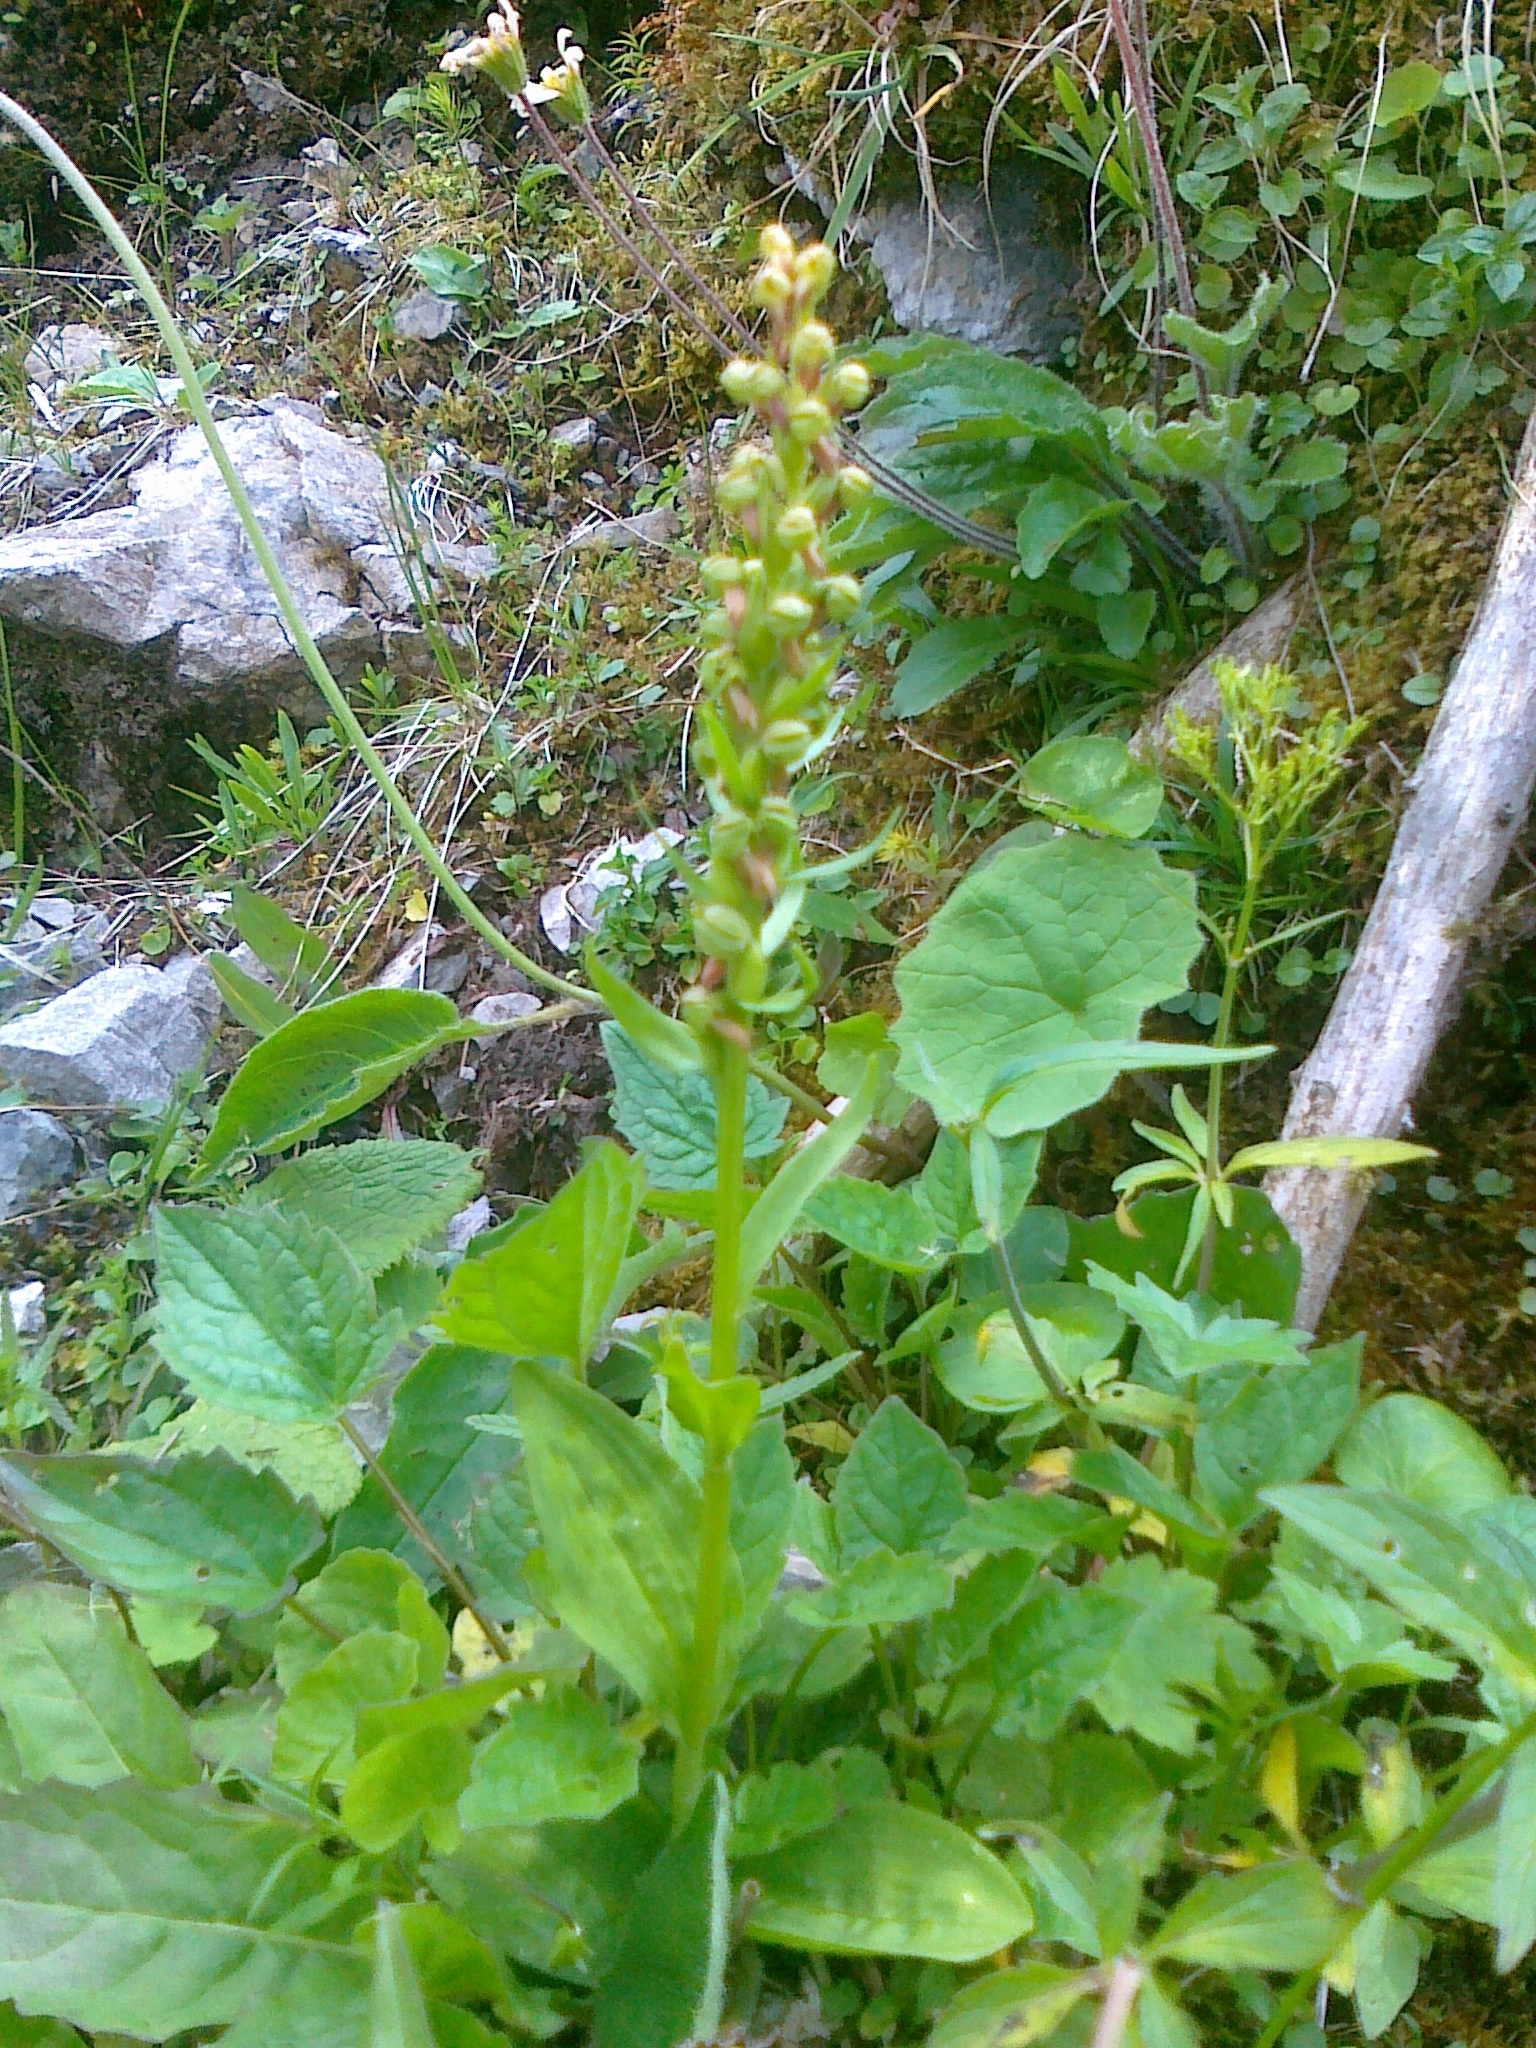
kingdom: Plantae
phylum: Tracheophyta
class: Liliopsida
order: Asparagales
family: Orchidaceae
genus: Dactylorhiza
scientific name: Dactylorhiza viridis
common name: Longbract frog orchid
